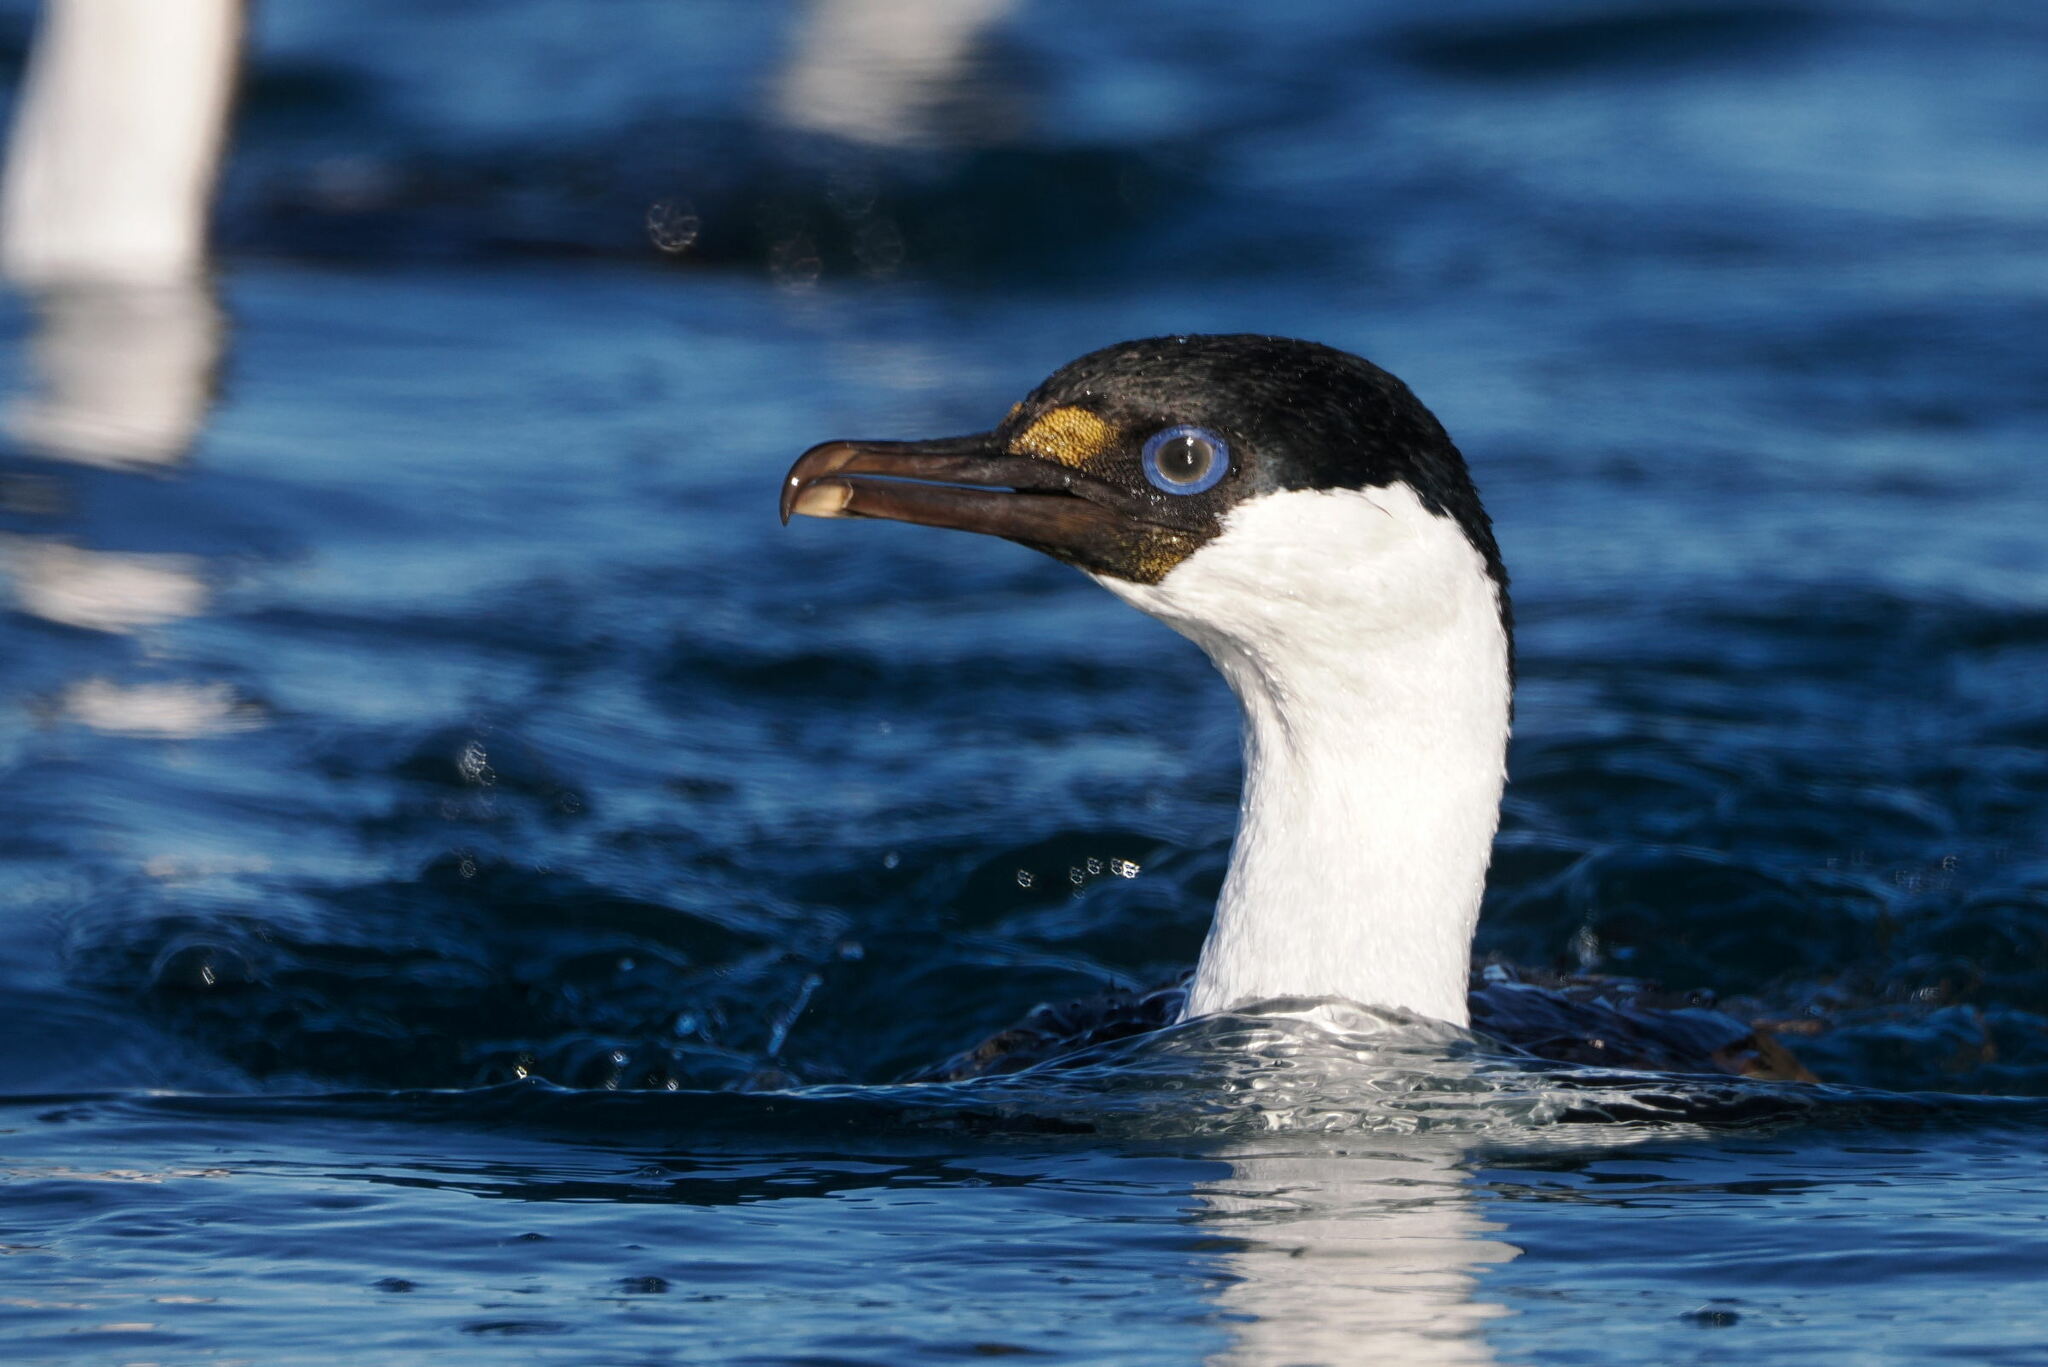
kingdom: Animalia
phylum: Chordata
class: Aves
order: Suliformes
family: Phalacrocoracidae
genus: Leucocarbo
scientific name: Leucocarbo atriceps
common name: Imperial shag
